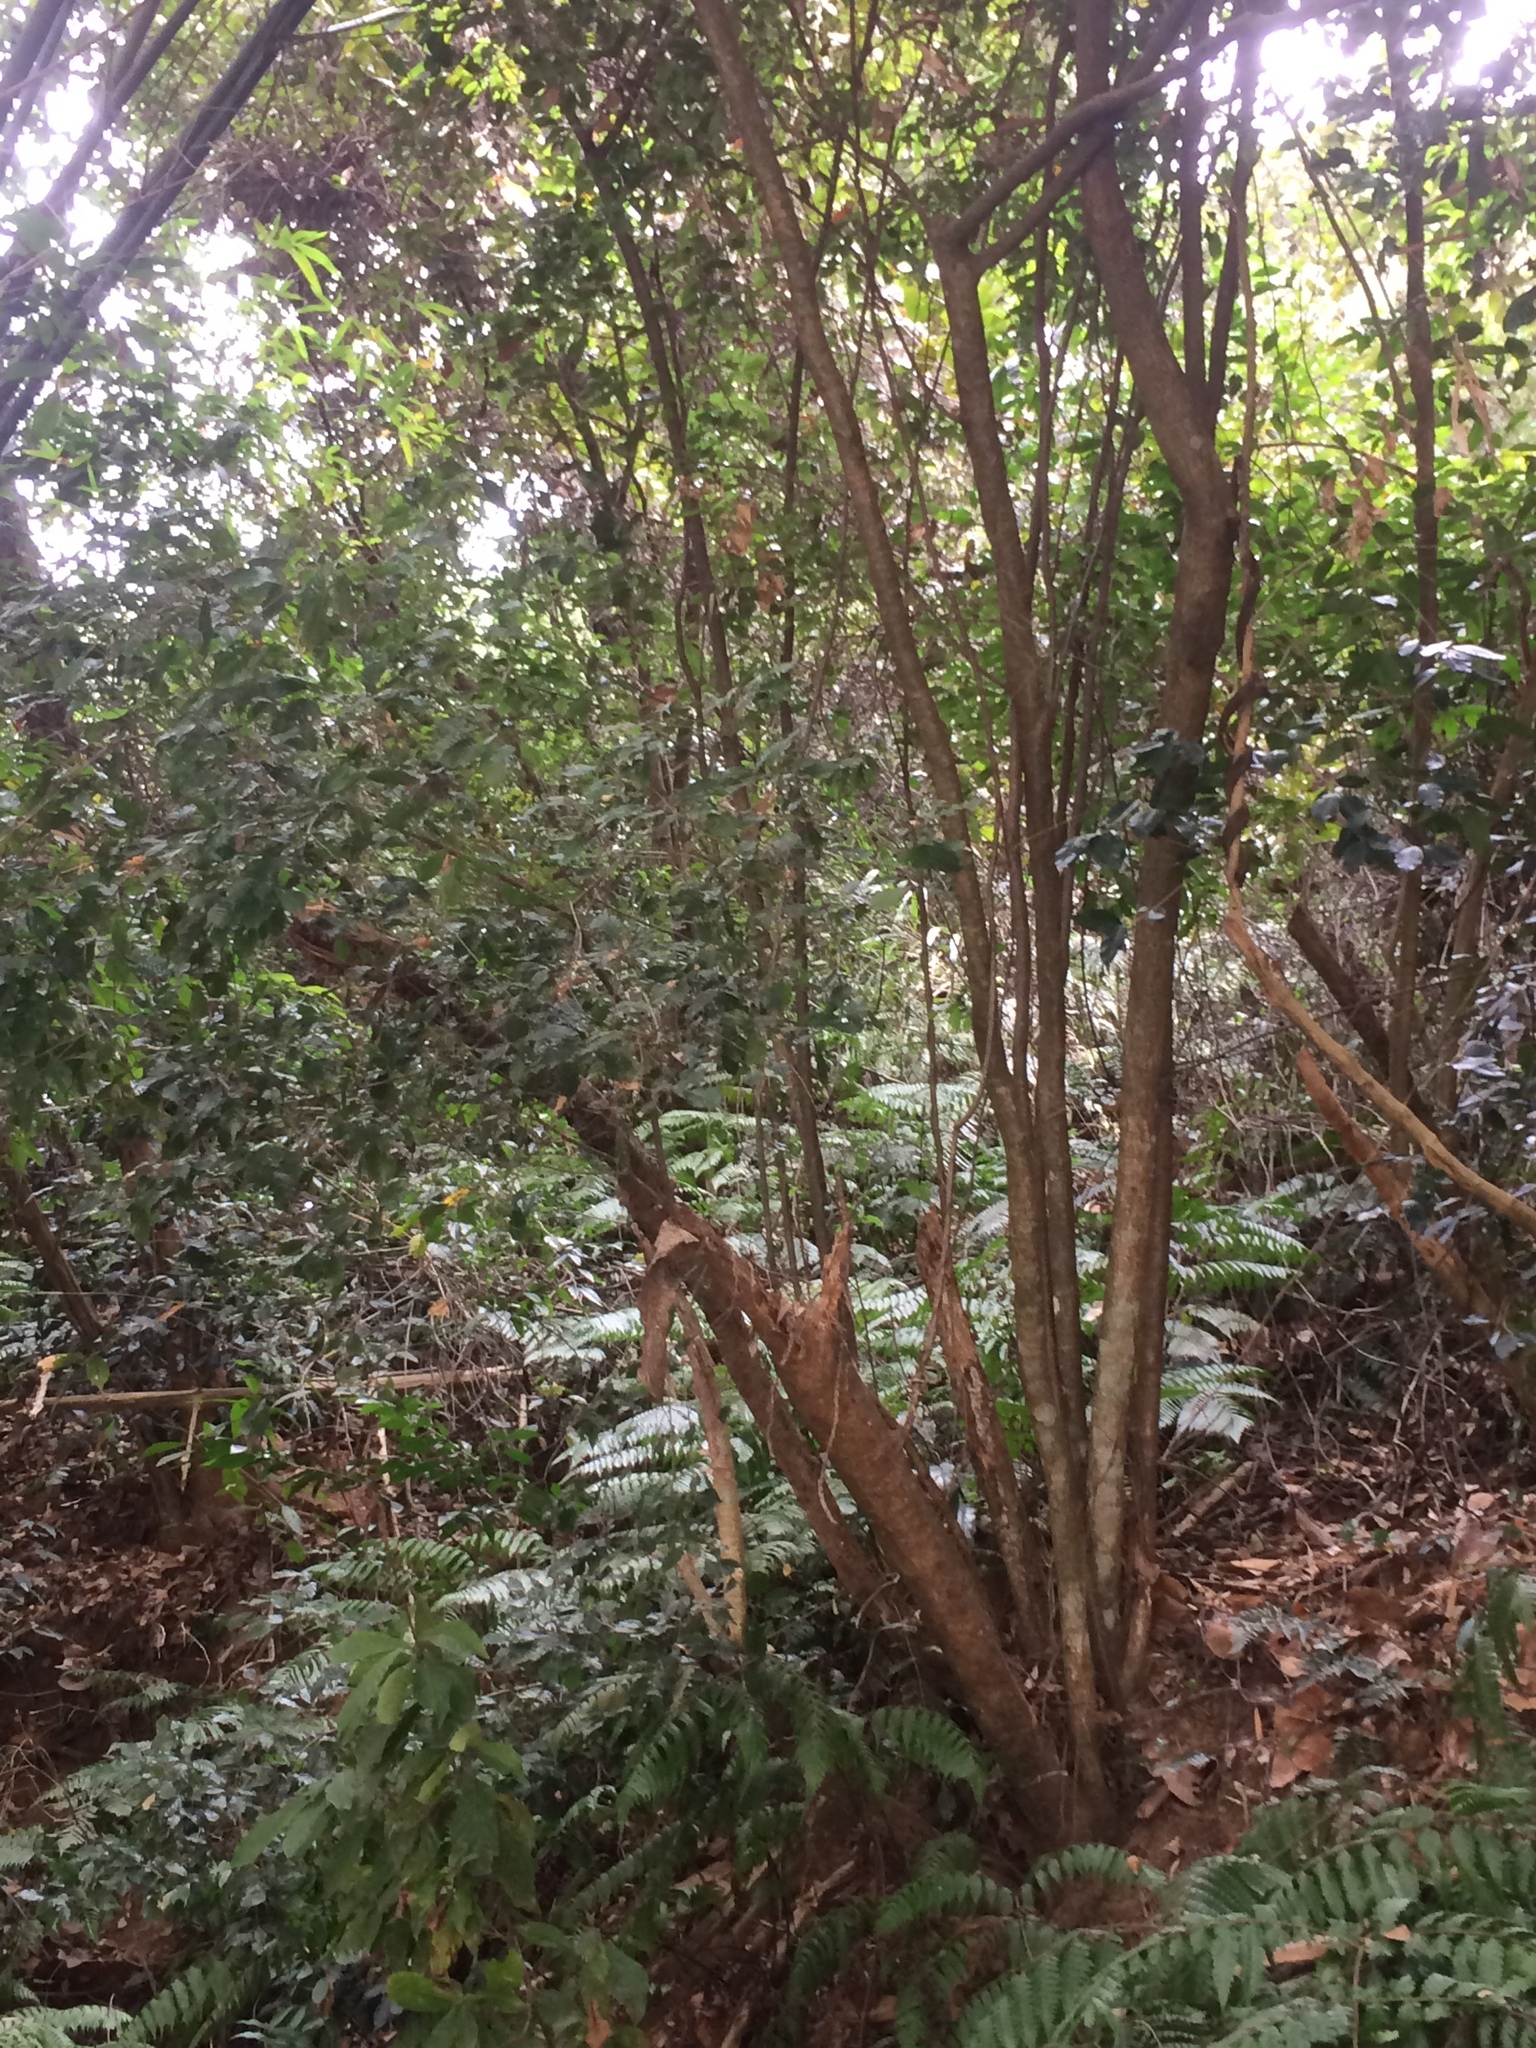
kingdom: Plantae
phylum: Tracheophyta
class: Magnoliopsida
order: Fagales
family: Fagaceae
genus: Lithocarpus
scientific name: Lithocarpus konishii
